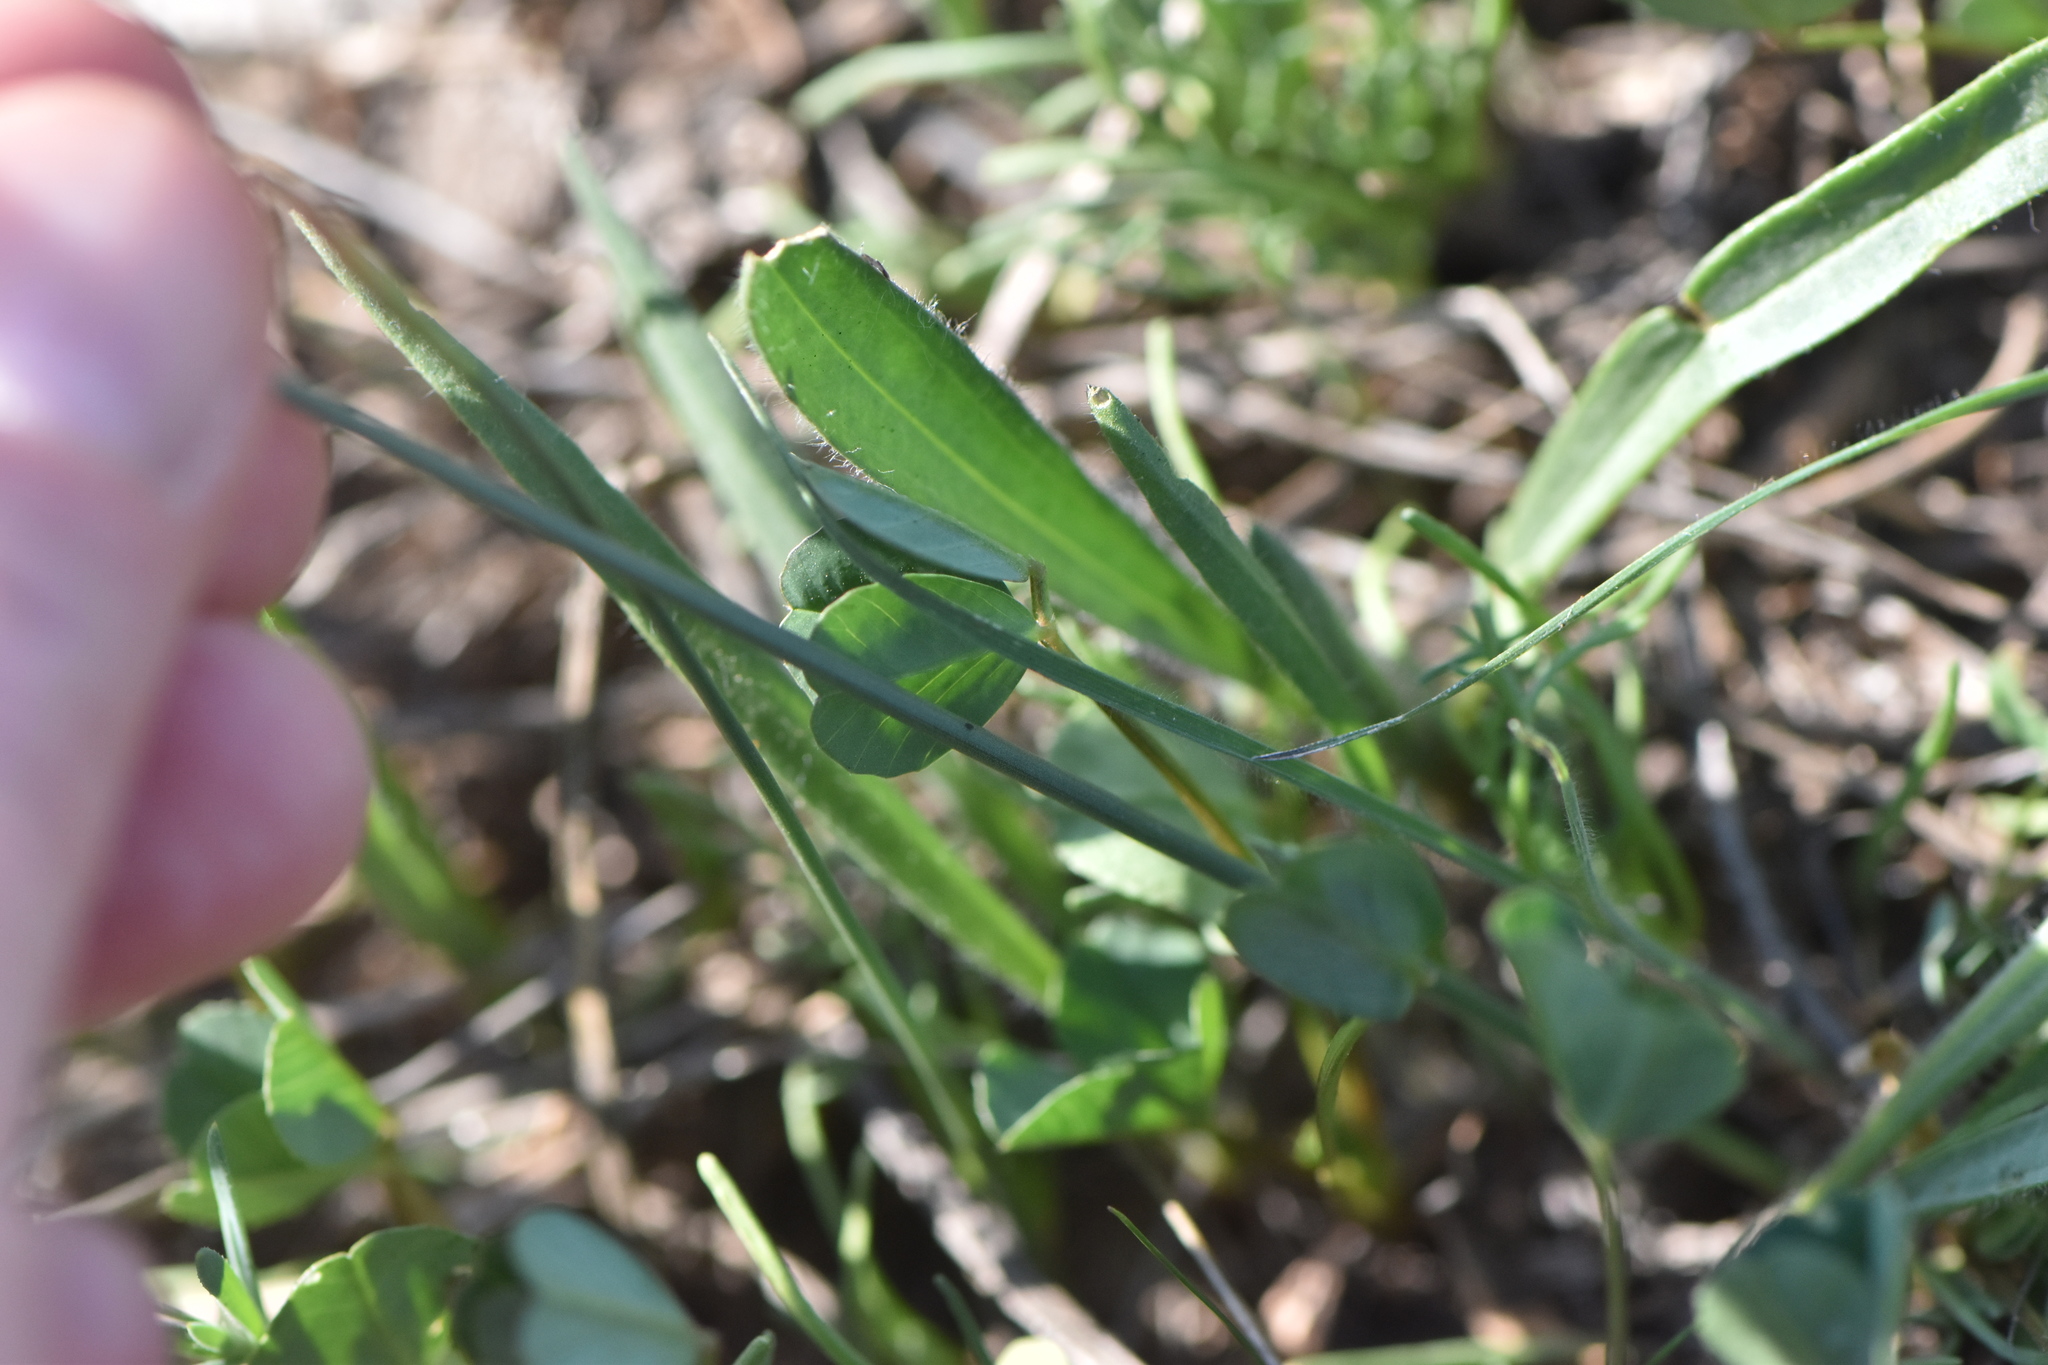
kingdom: Plantae
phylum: Tracheophyta
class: Liliopsida
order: Asparagales
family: Amaryllidaceae
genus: Narcissus
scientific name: Narcissus serotinus
